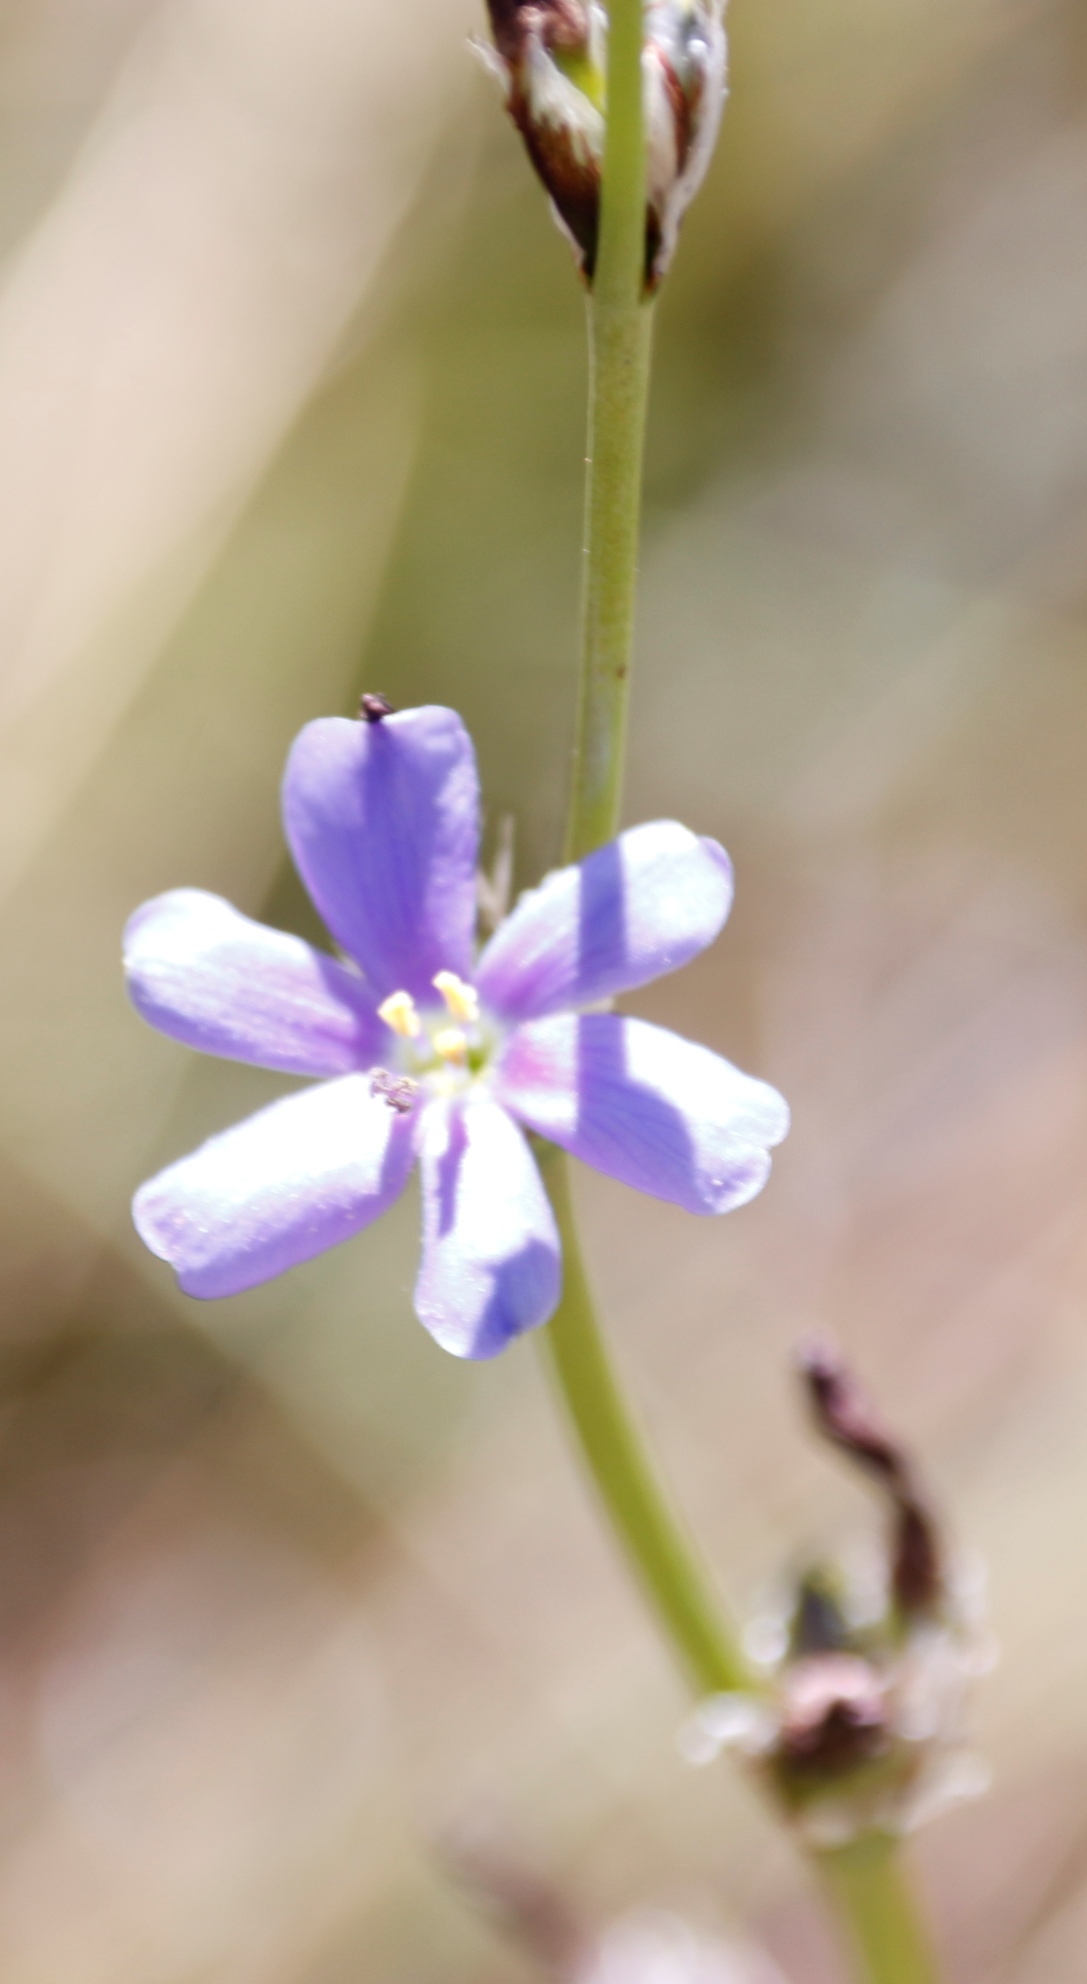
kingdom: Plantae
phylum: Tracheophyta
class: Liliopsida
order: Asparagales
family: Iridaceae
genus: Aristea
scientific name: Aristea torulosa
